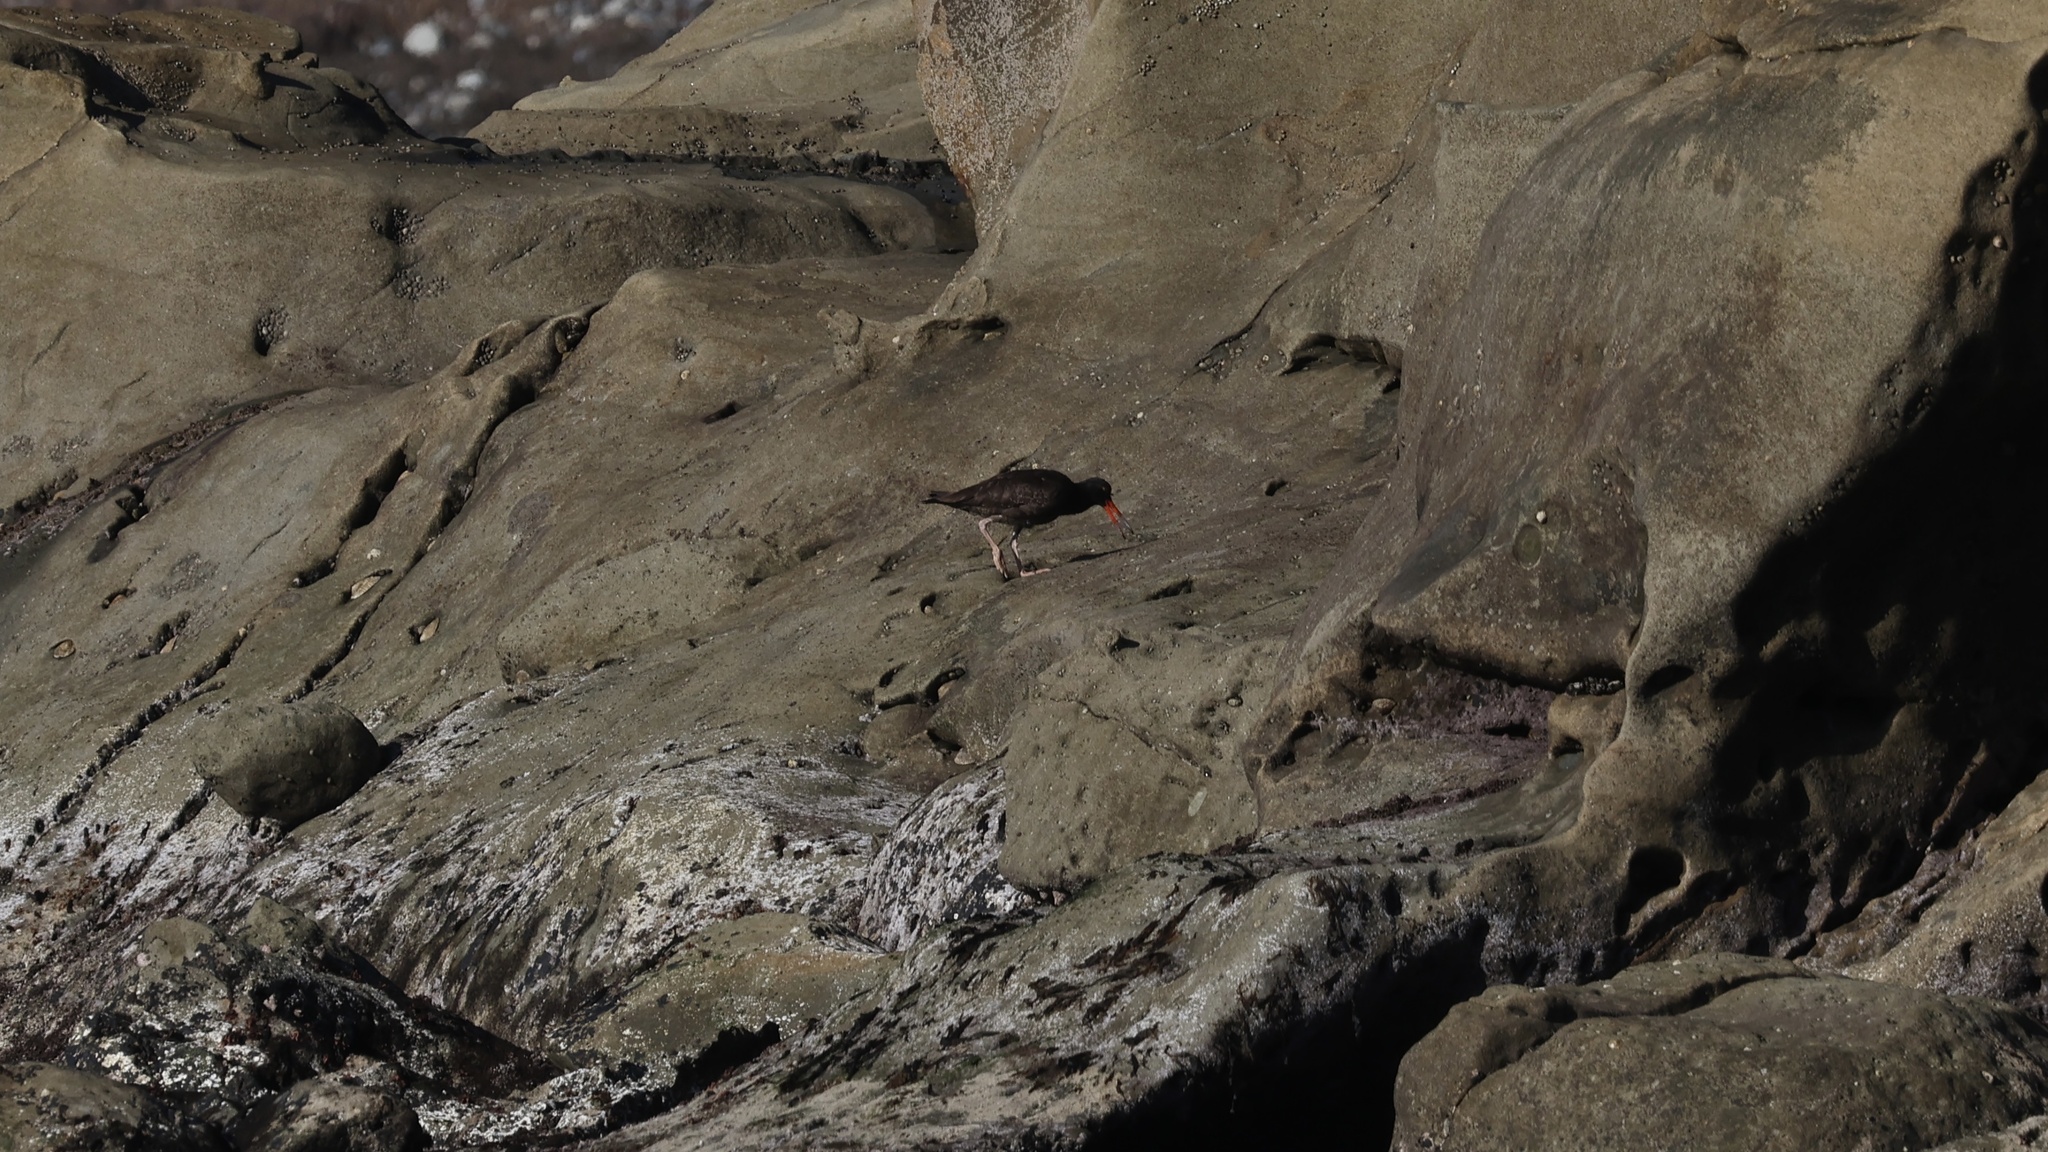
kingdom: Animalia
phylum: Chordata
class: Aves
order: Charadriiformes
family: Haematopodidae
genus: Haematopus
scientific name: Haematopus bachmani
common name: Black oystercatcher
